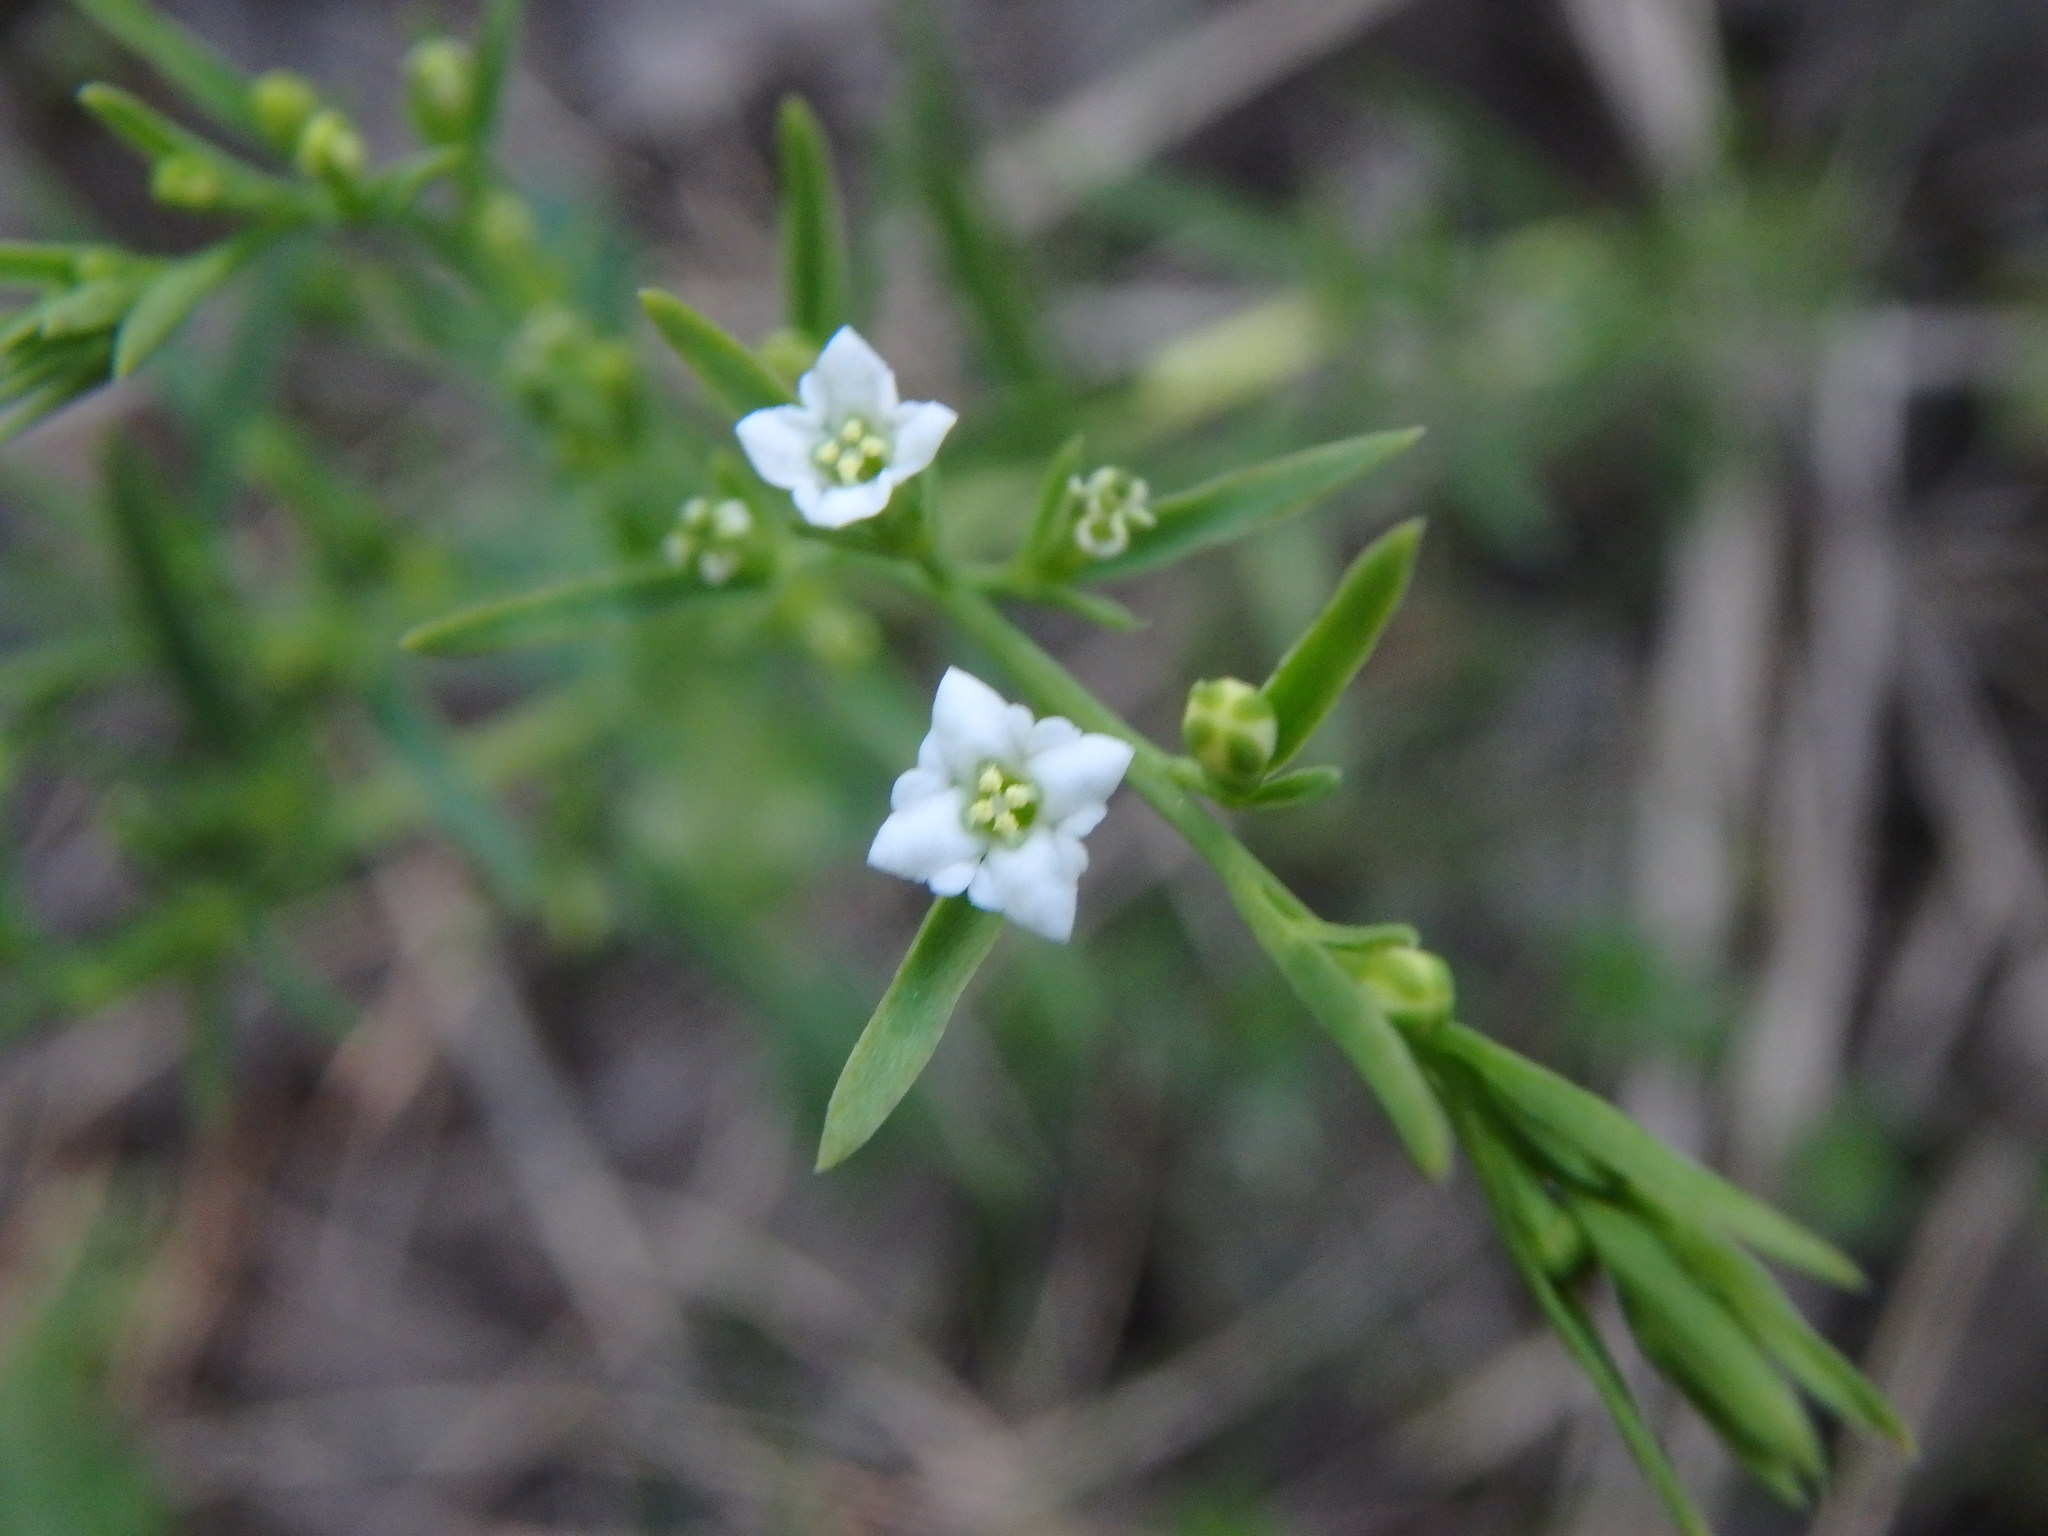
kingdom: Plantae
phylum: Tracheophyta
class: Magnoliopsida
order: Santalales
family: Thesiaceae
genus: Thesium
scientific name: Thesium alpinum
